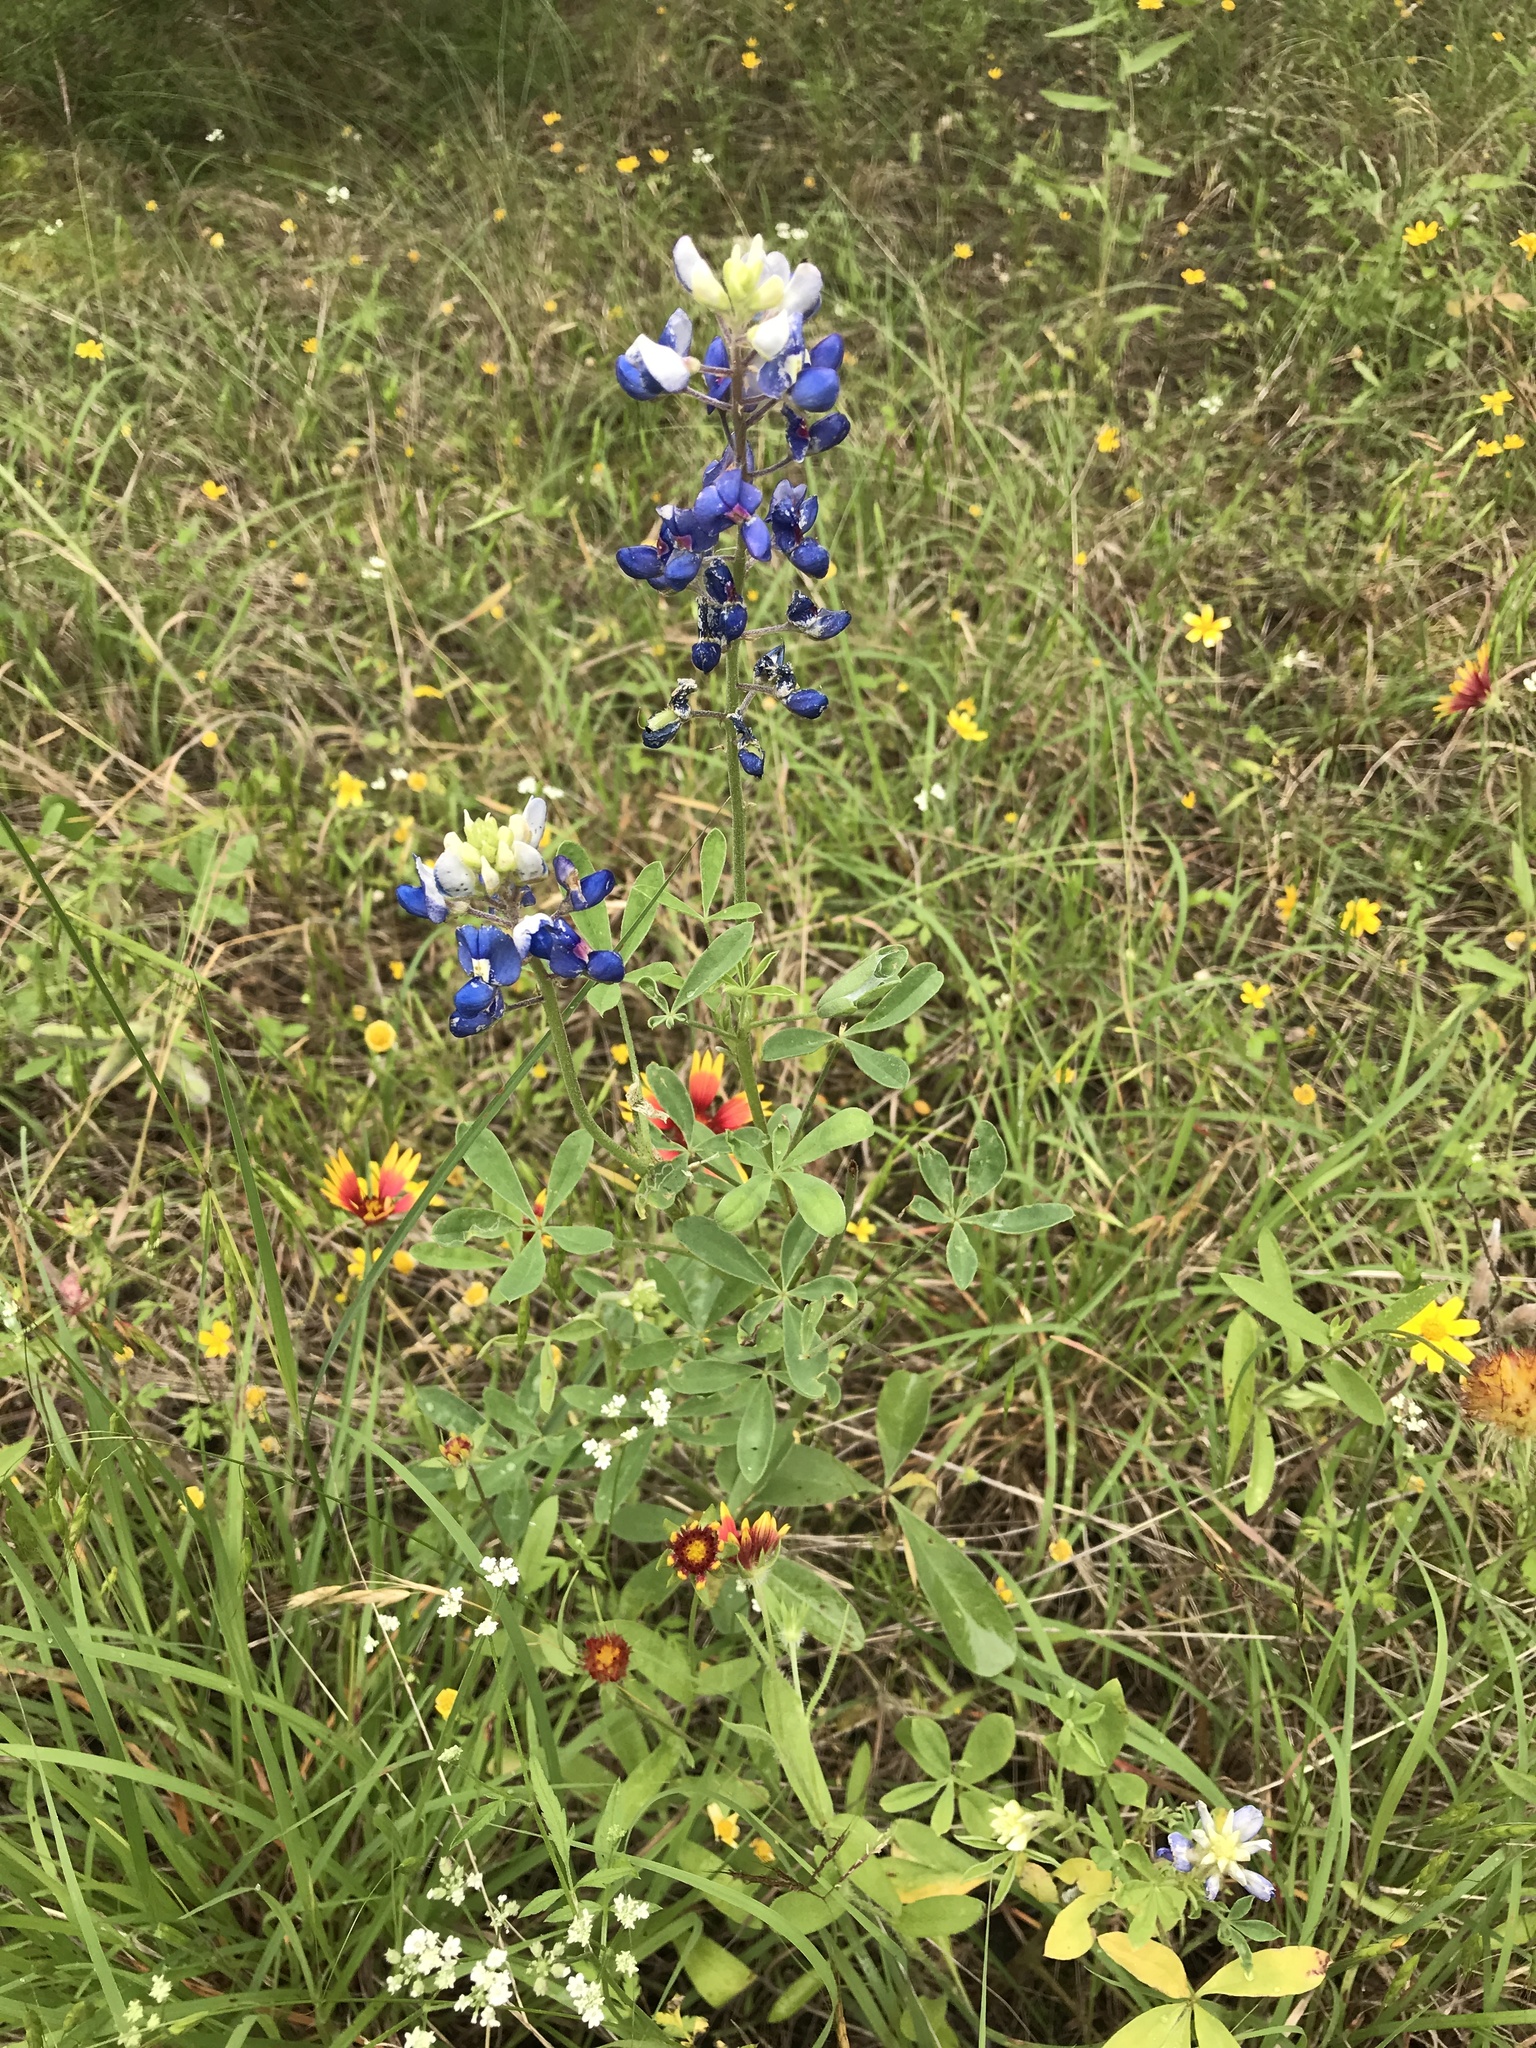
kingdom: Plantae
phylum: Tracheophyta
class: Magnoliopsida
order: Fabales
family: Fabaceae
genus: Lupinus
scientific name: Lupinus texensis
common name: Texas bluebonnet
